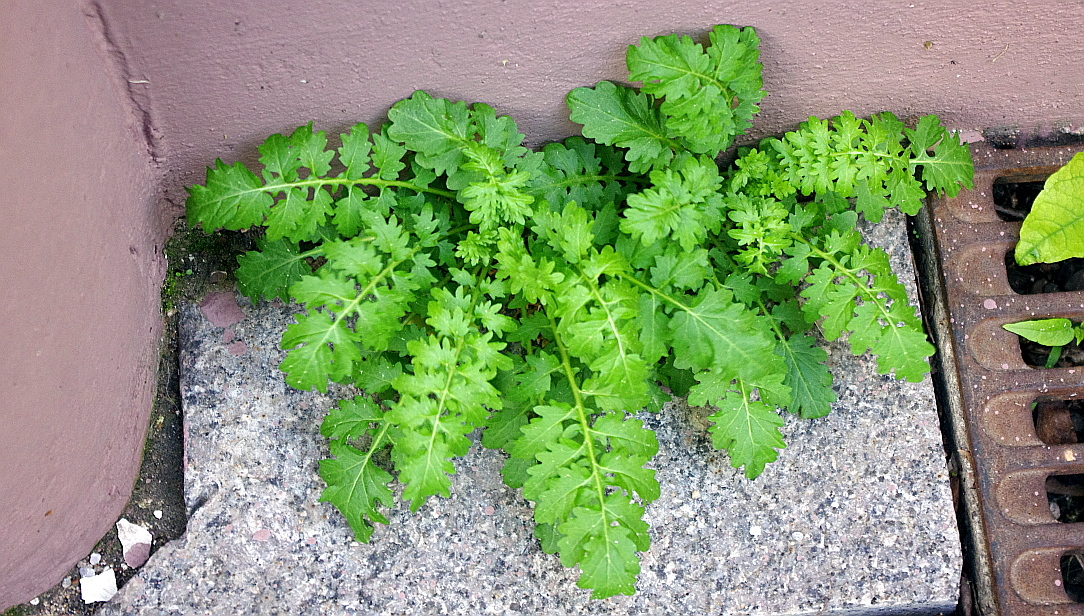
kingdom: Plantae
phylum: Tracheophyta
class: Magnoliopsida
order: Brassicales
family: Brassicaceae
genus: Rorippa
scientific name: Rorippa palustris
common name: Marsh yellow-cress
